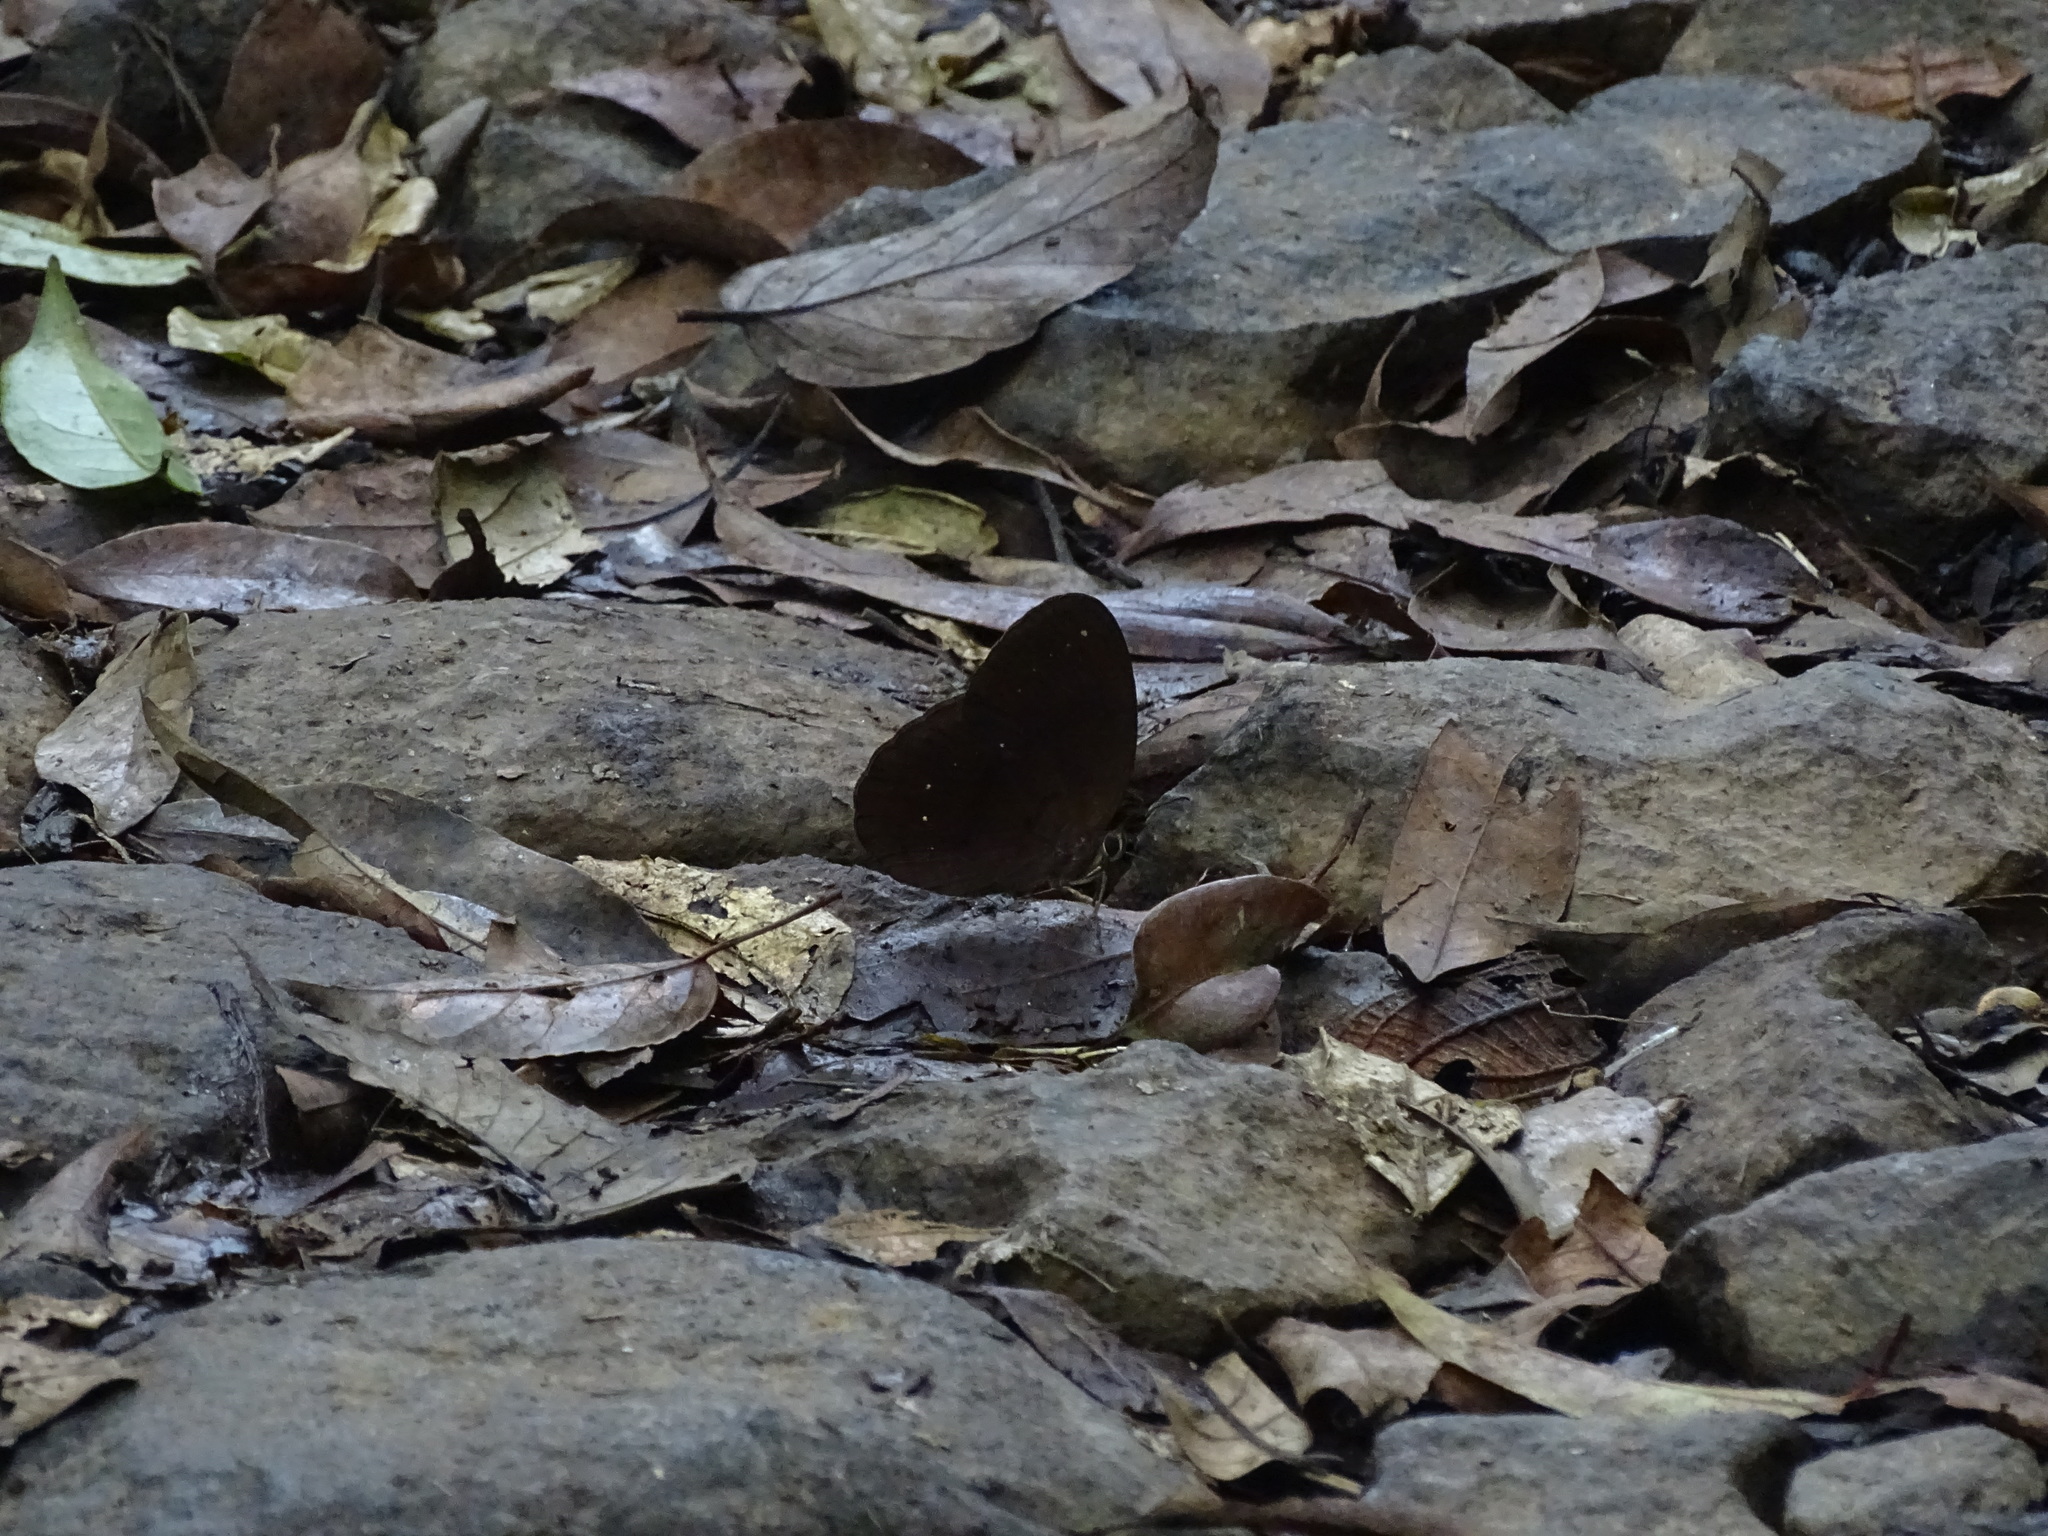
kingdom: Animalia
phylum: Arthropoda
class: Insecta
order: Lepidoptera
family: Nymphalidae
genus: Faunis
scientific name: Faunis canens
